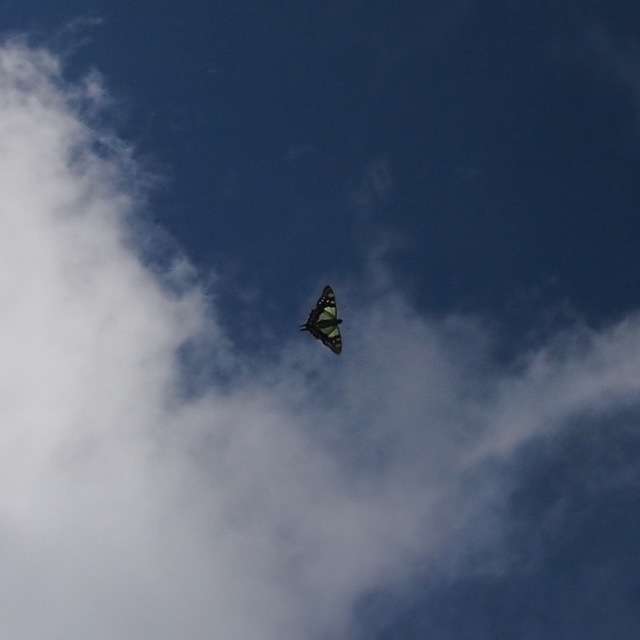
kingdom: Animalia
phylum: Arthropoda
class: Insecta
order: Lepidoptera
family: Papilionidae
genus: Graphium
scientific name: Graphium macleayanus
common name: Macleay's swallowtail
